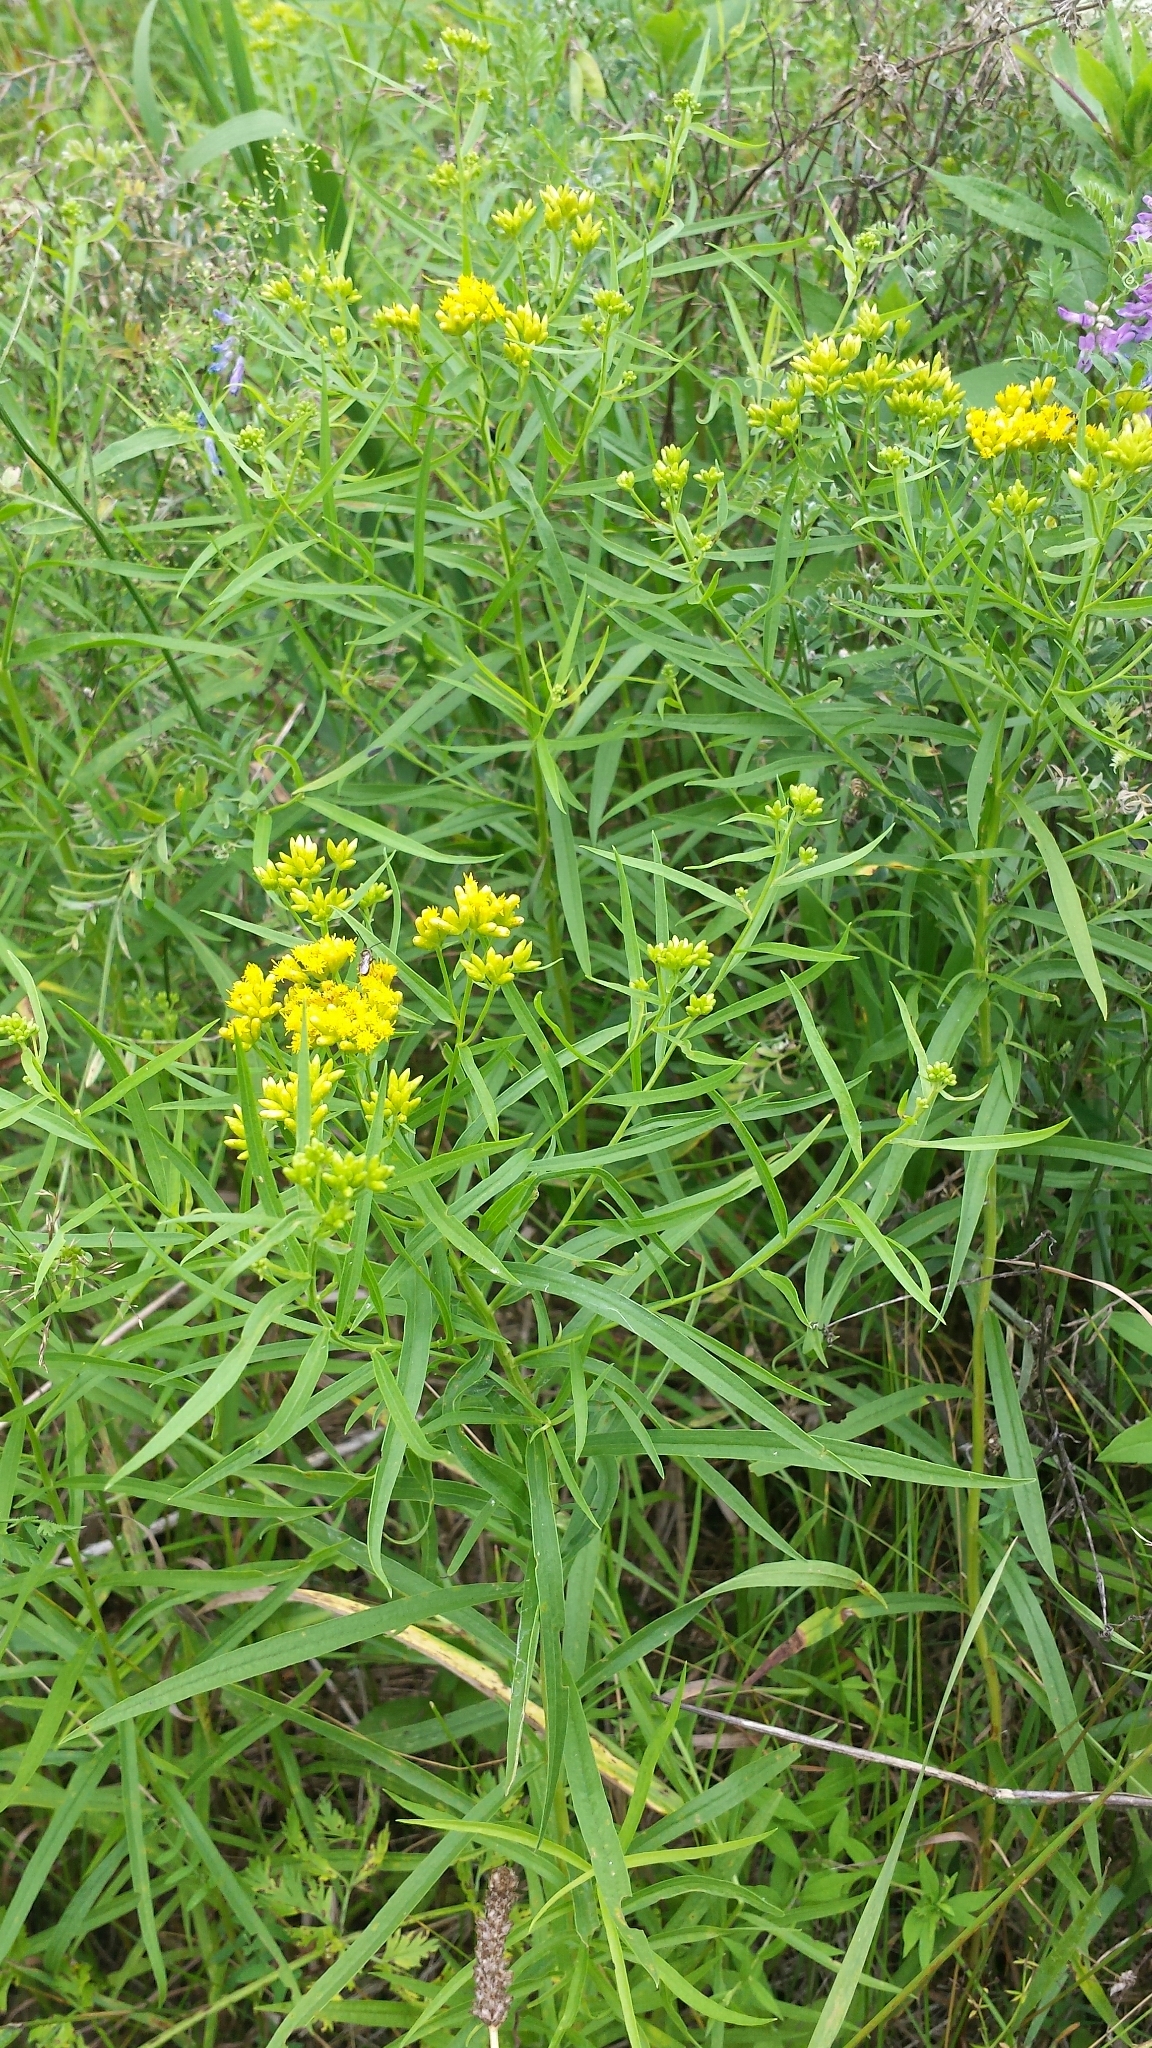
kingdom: Plantae
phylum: Tracheophyta
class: Magnoliopsida
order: Asterales
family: Asteraceae
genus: Euthamia
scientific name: Euthamia graminifolia
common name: Common goldentop
